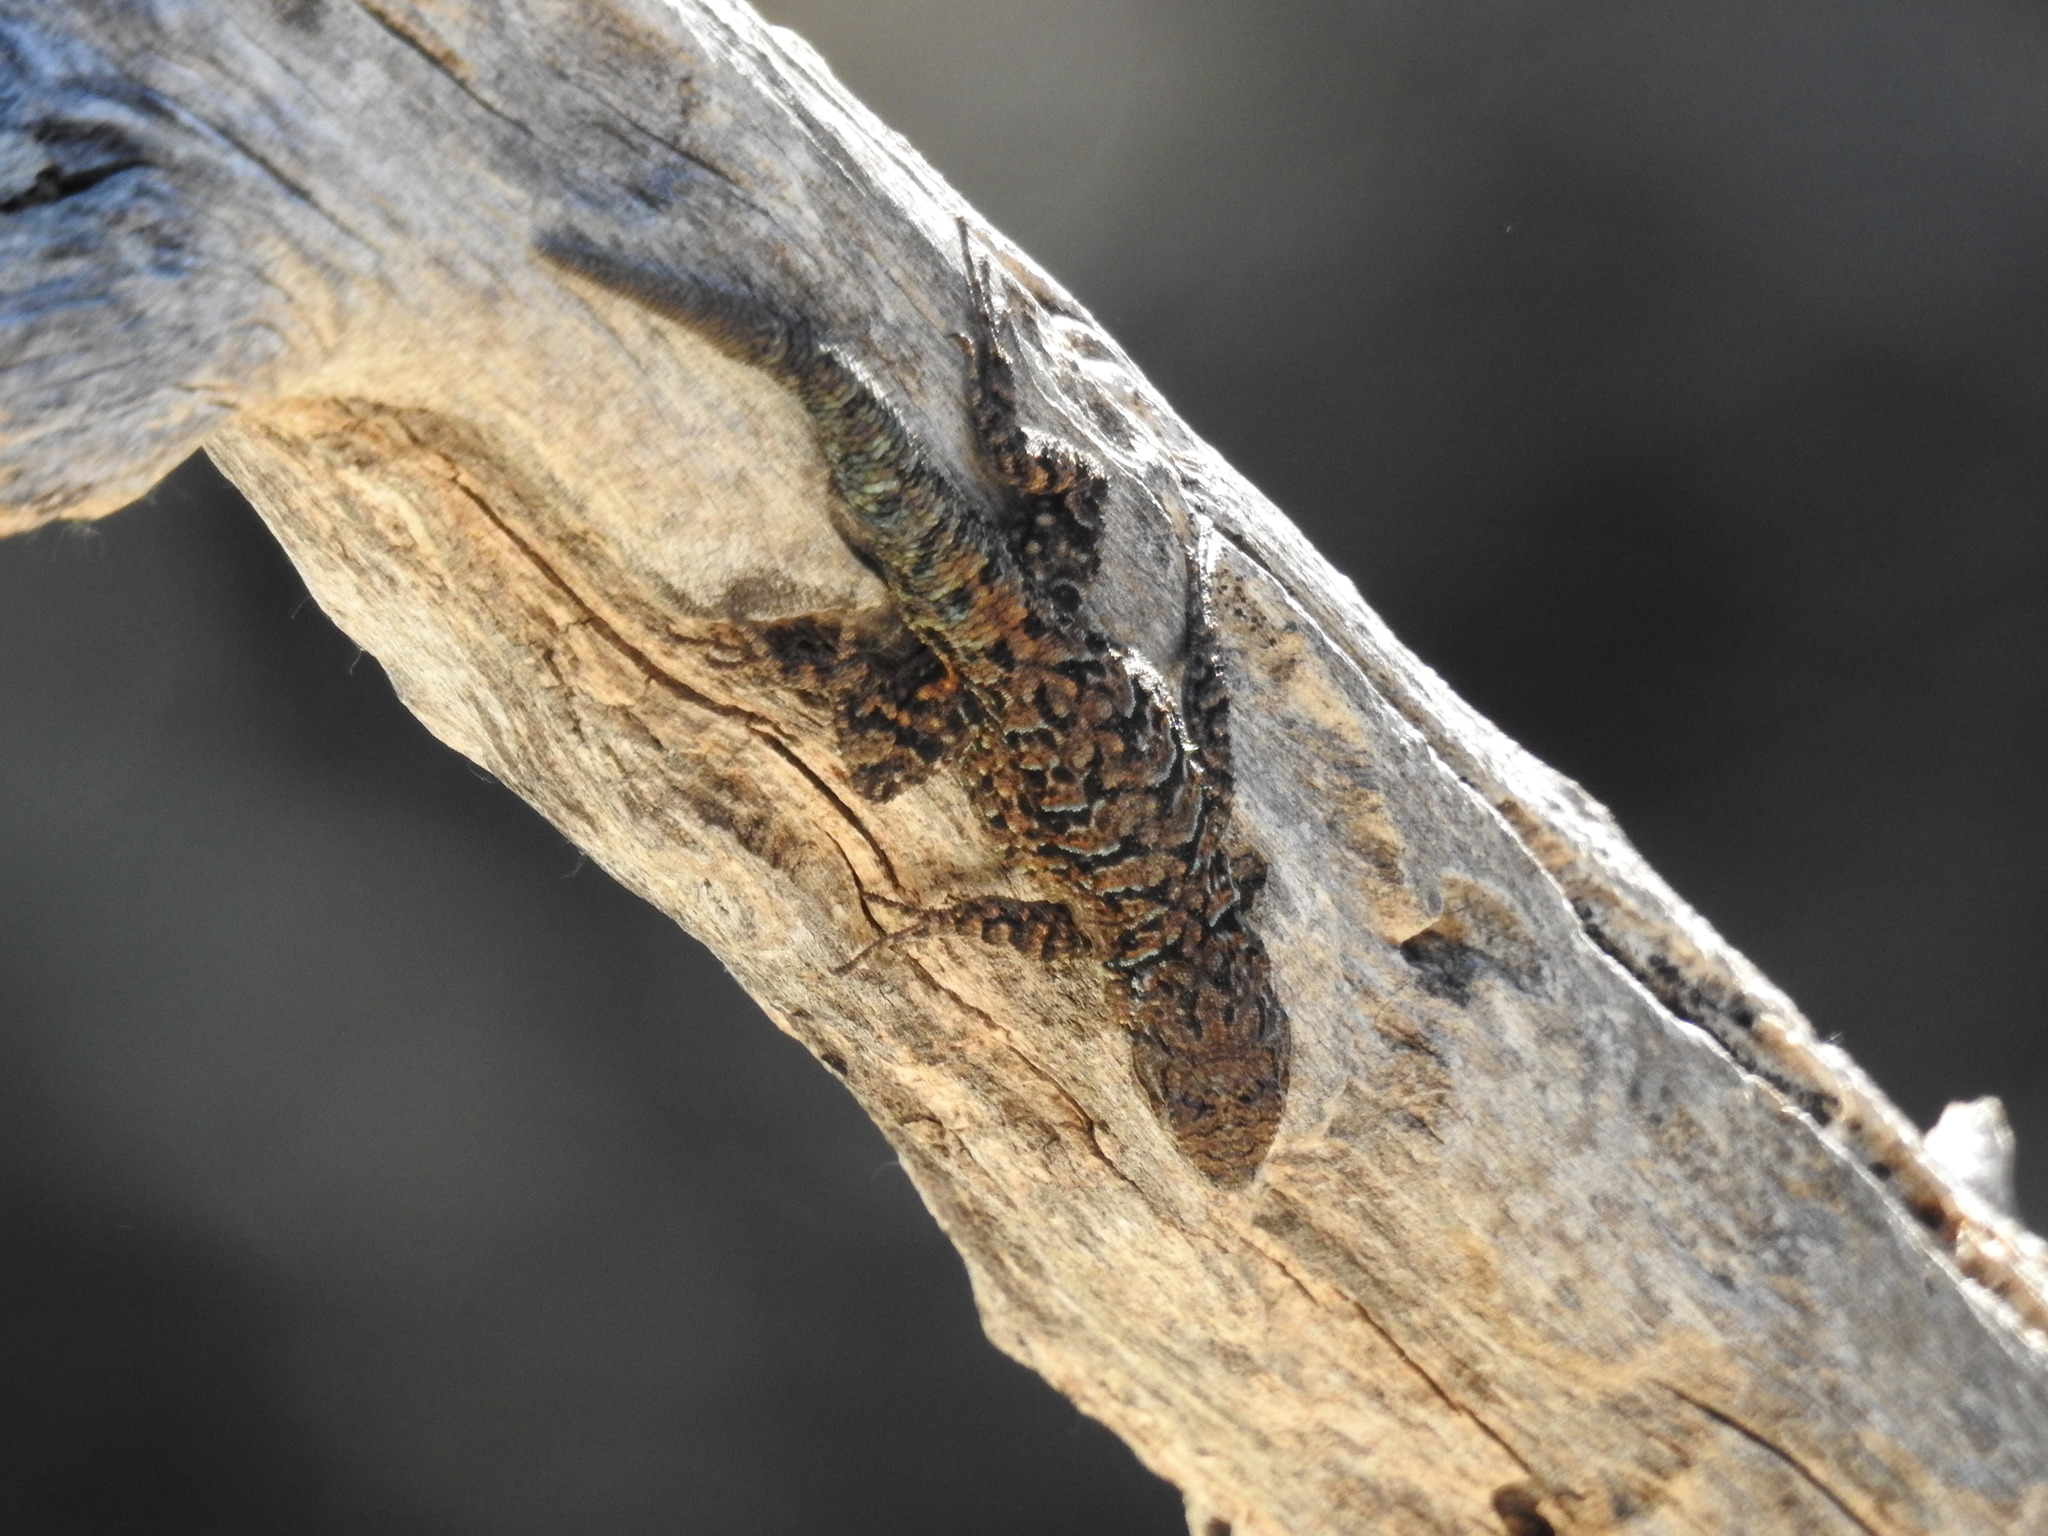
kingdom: Animalia
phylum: Chordata
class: Squamata
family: Phrynosomatidae
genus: Urosaurus
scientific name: Urosaurus ornatus
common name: Ornate tree lizard
